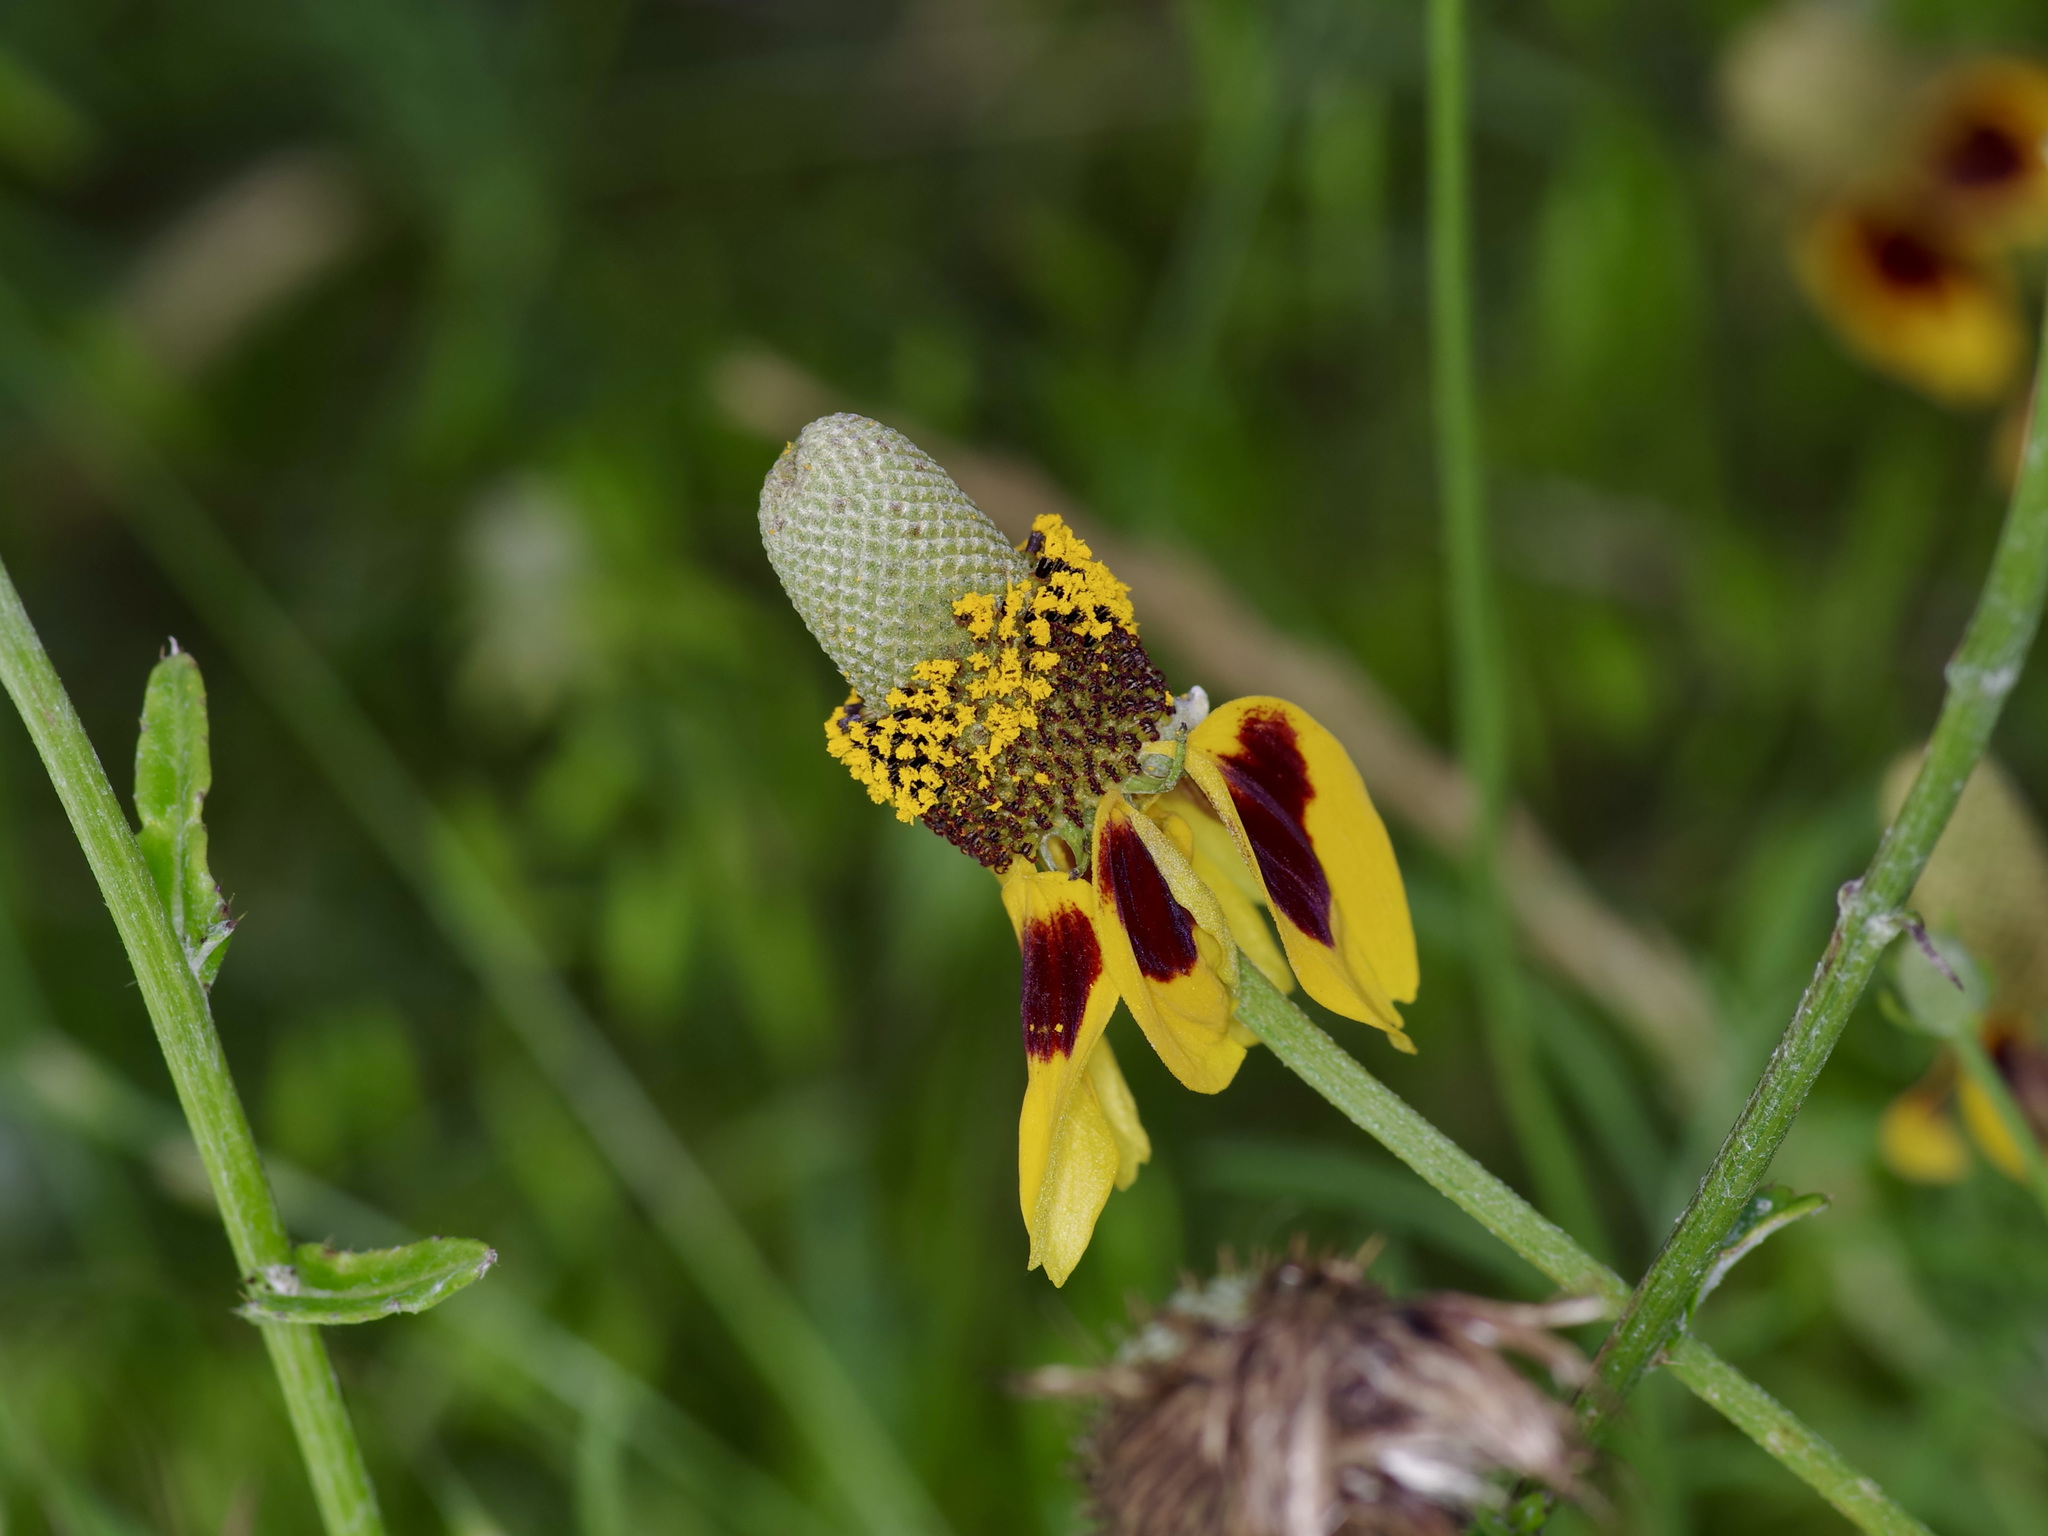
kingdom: Plantae
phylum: Tracheophyta
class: Magnoliopsida
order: Asterales
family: Asteraceae
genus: Ratibida
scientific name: Ratibida columnifera
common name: Prairie coneflower
